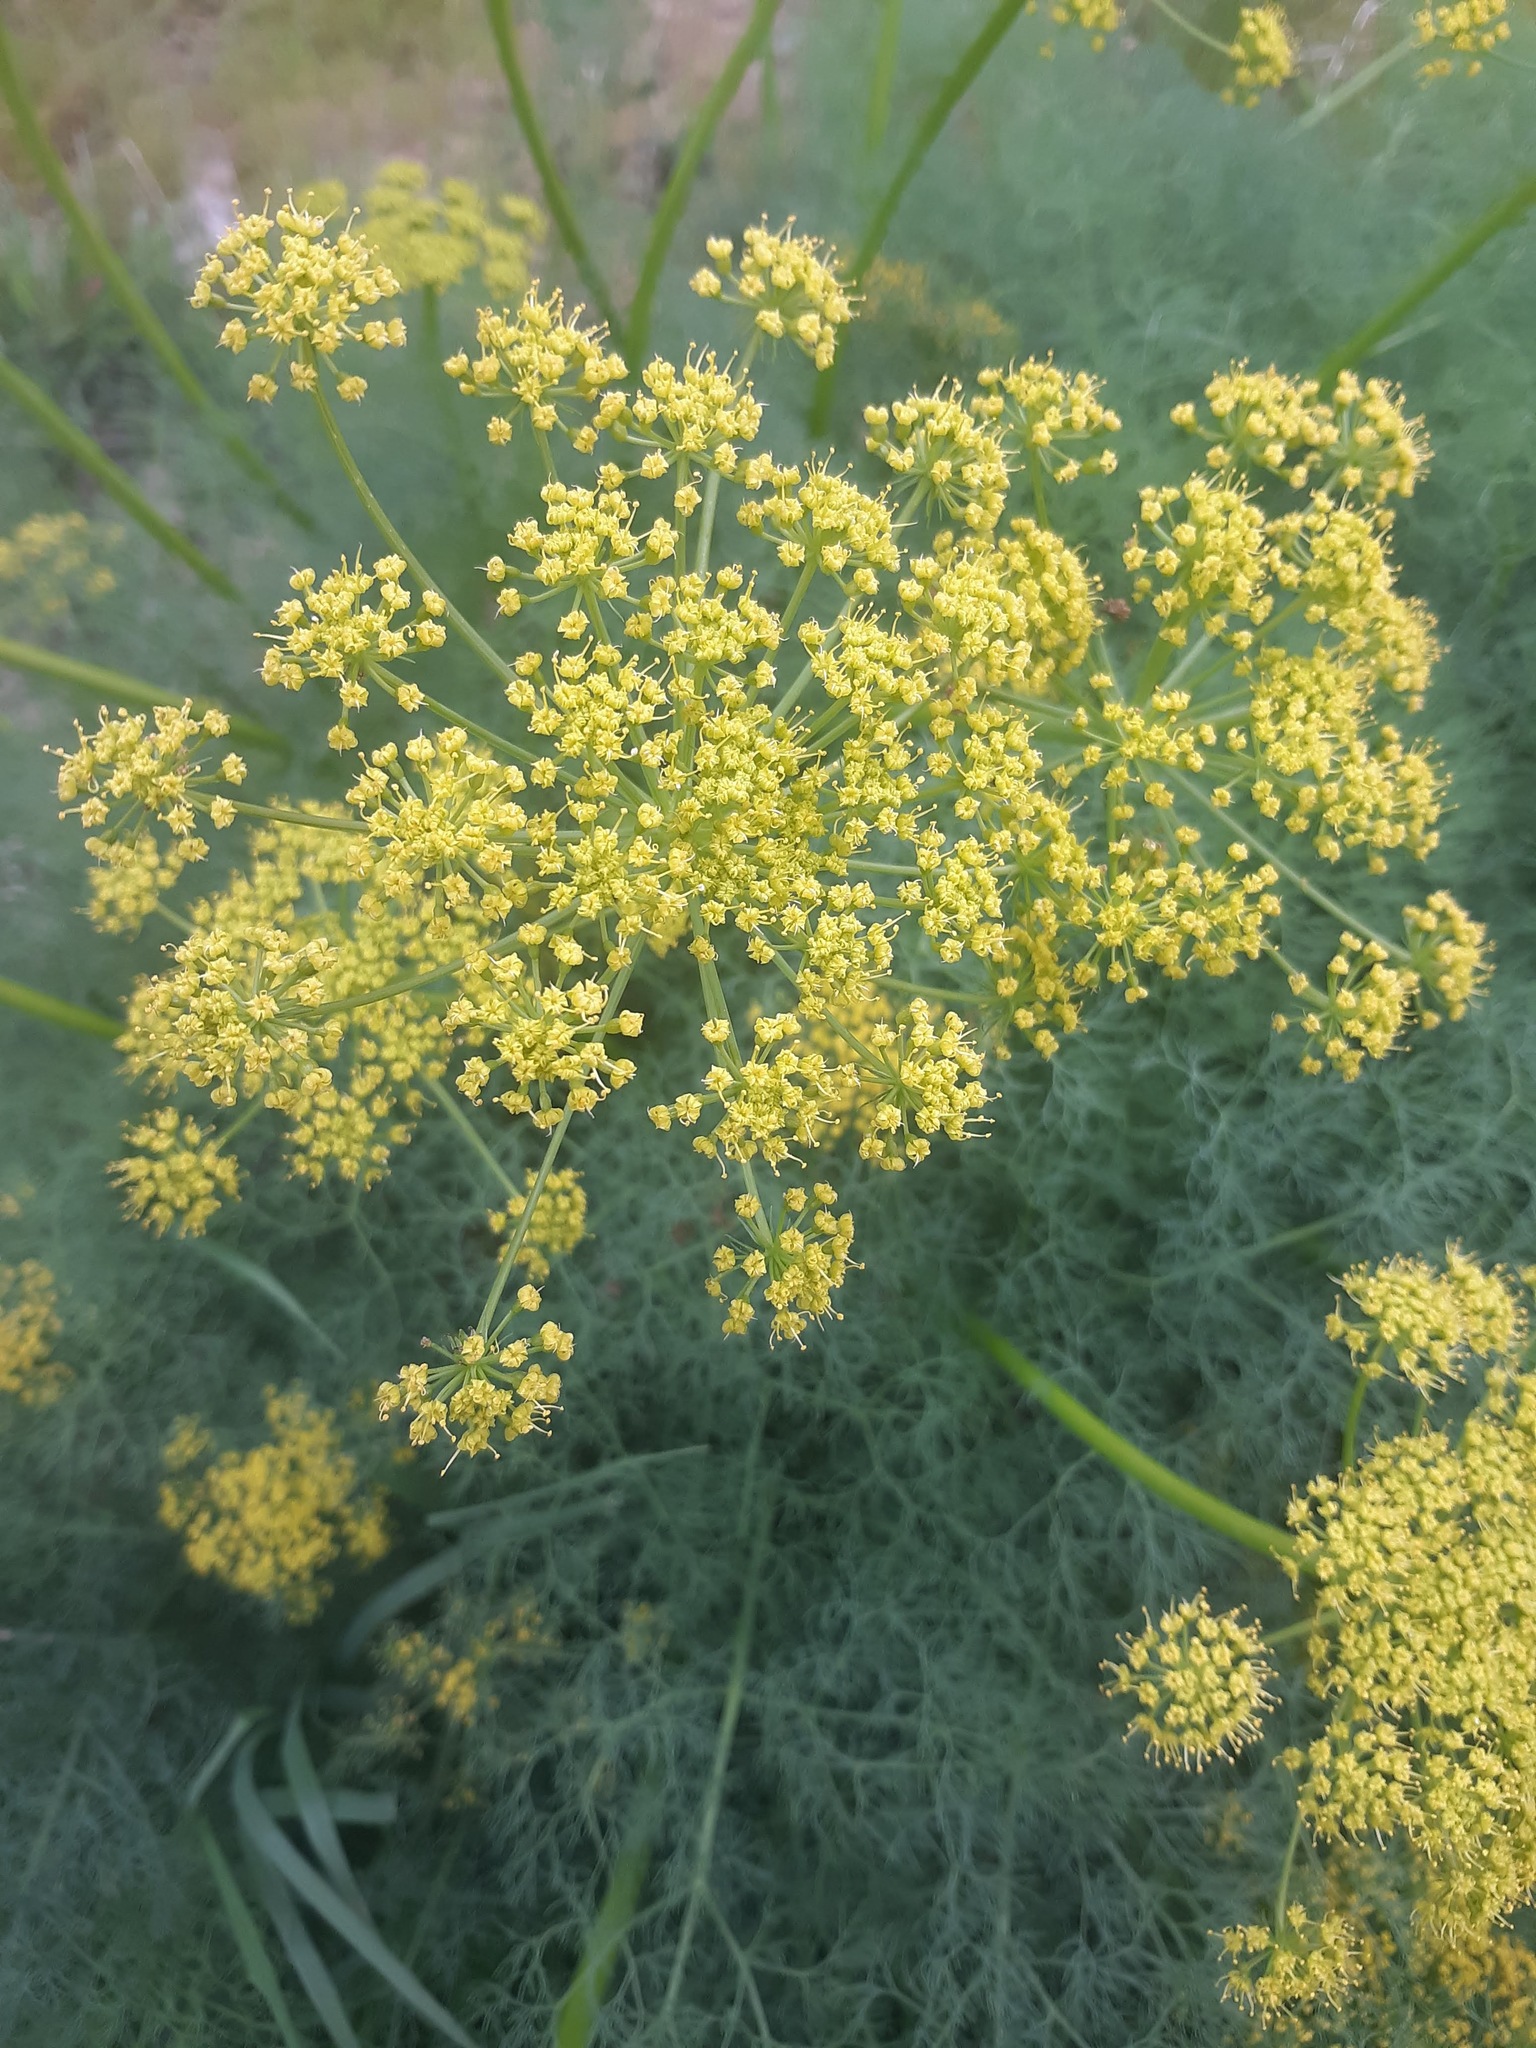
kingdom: Plantae
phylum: Tracheophyta
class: Magnoliopsida
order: Apiales
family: Apiaceae
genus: Lomatium
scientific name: Lomatium klickitatense
